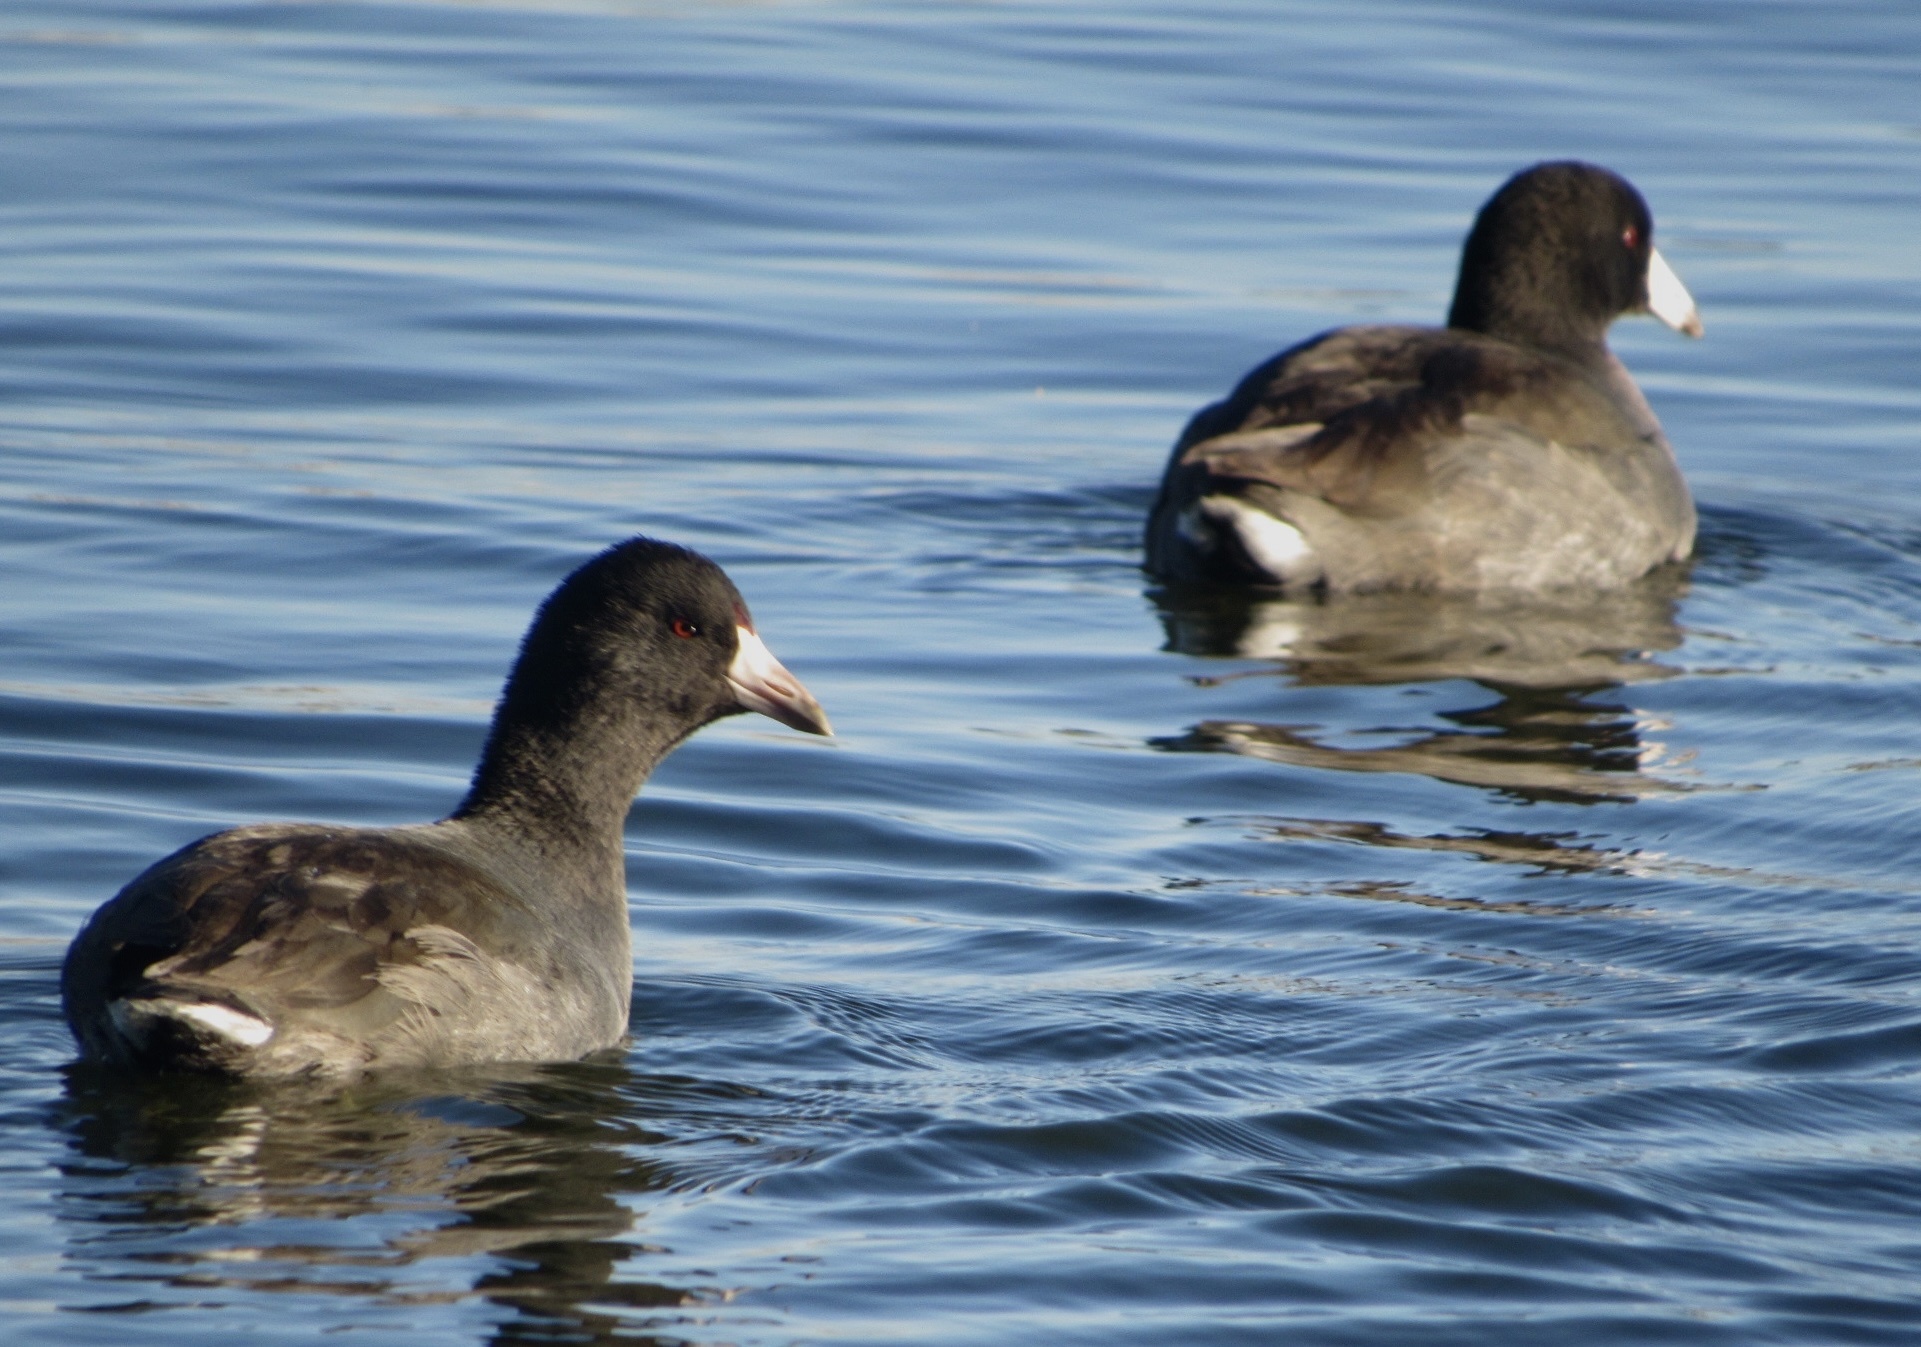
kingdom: Animalia
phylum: Chordata
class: Aves
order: Gruiformes
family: Rallidae
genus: Fulica
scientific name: Fulica americana
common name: American coot
